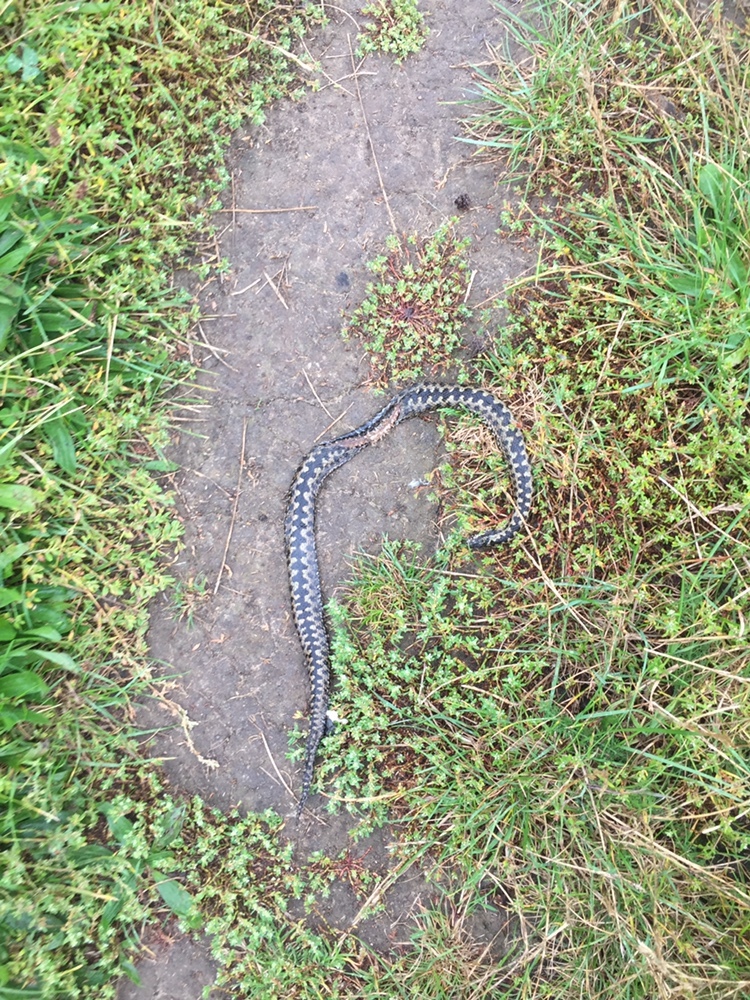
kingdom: Animalia
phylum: Chordata
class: Squamata
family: Viperidae
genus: Vipera
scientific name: Vipera berus
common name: Adder
